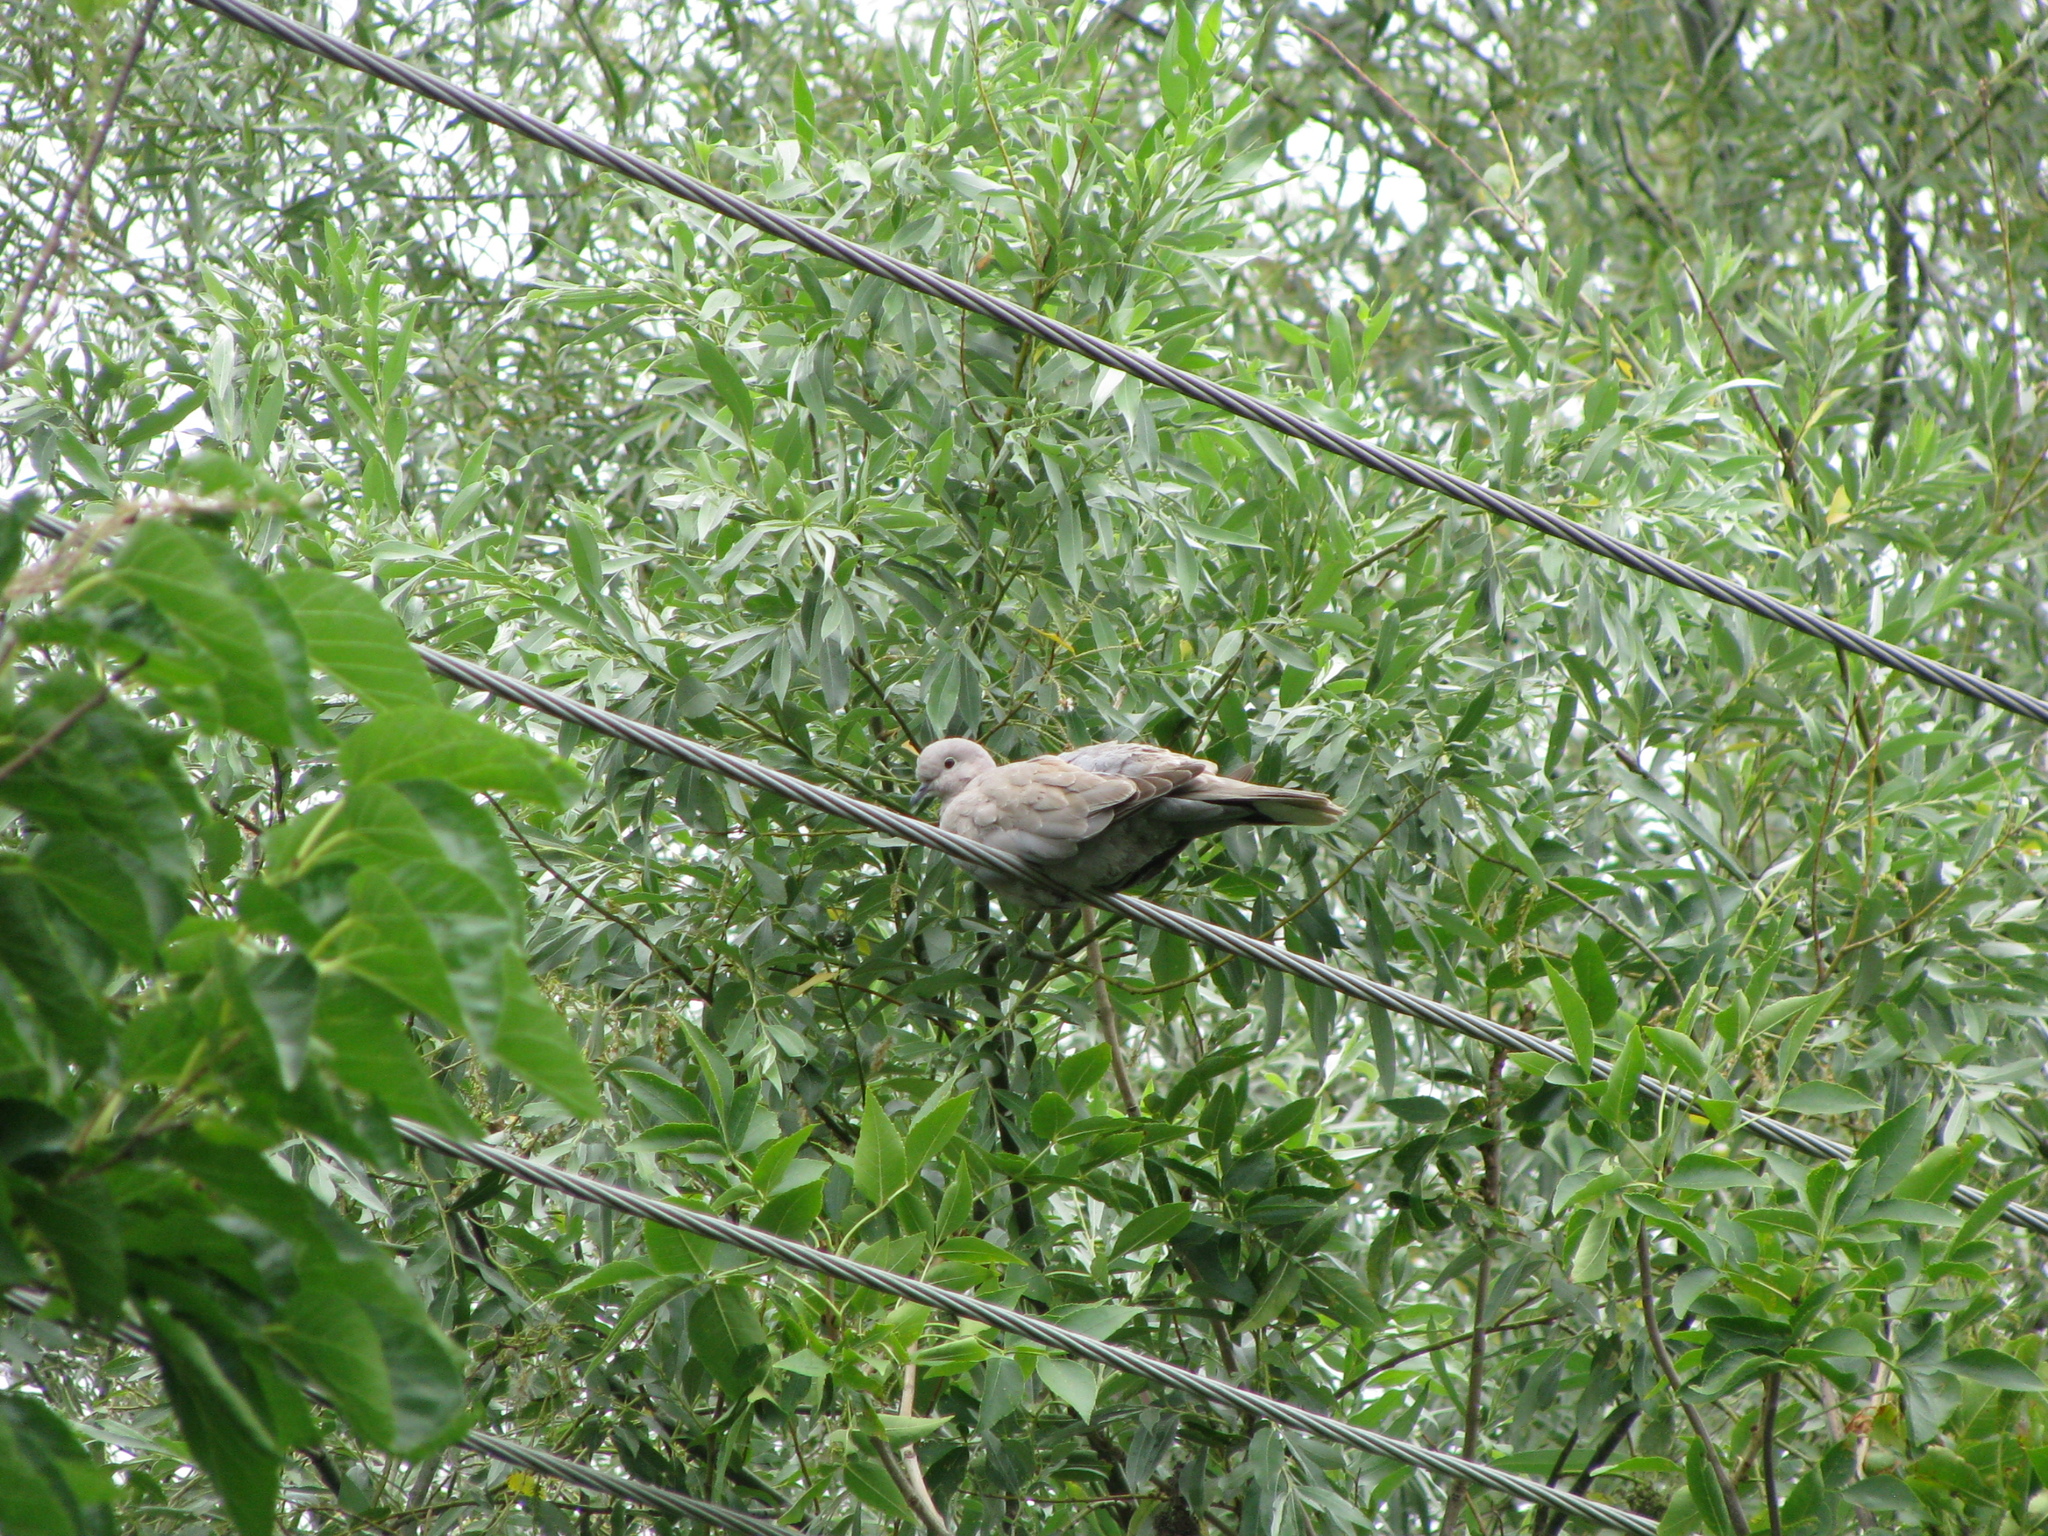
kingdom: Animalia
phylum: Chordata
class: Aves
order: Columbiformes
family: Columbidae
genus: Streptopelia
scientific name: Streptopelia decaocto
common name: Eurasian collared dove
